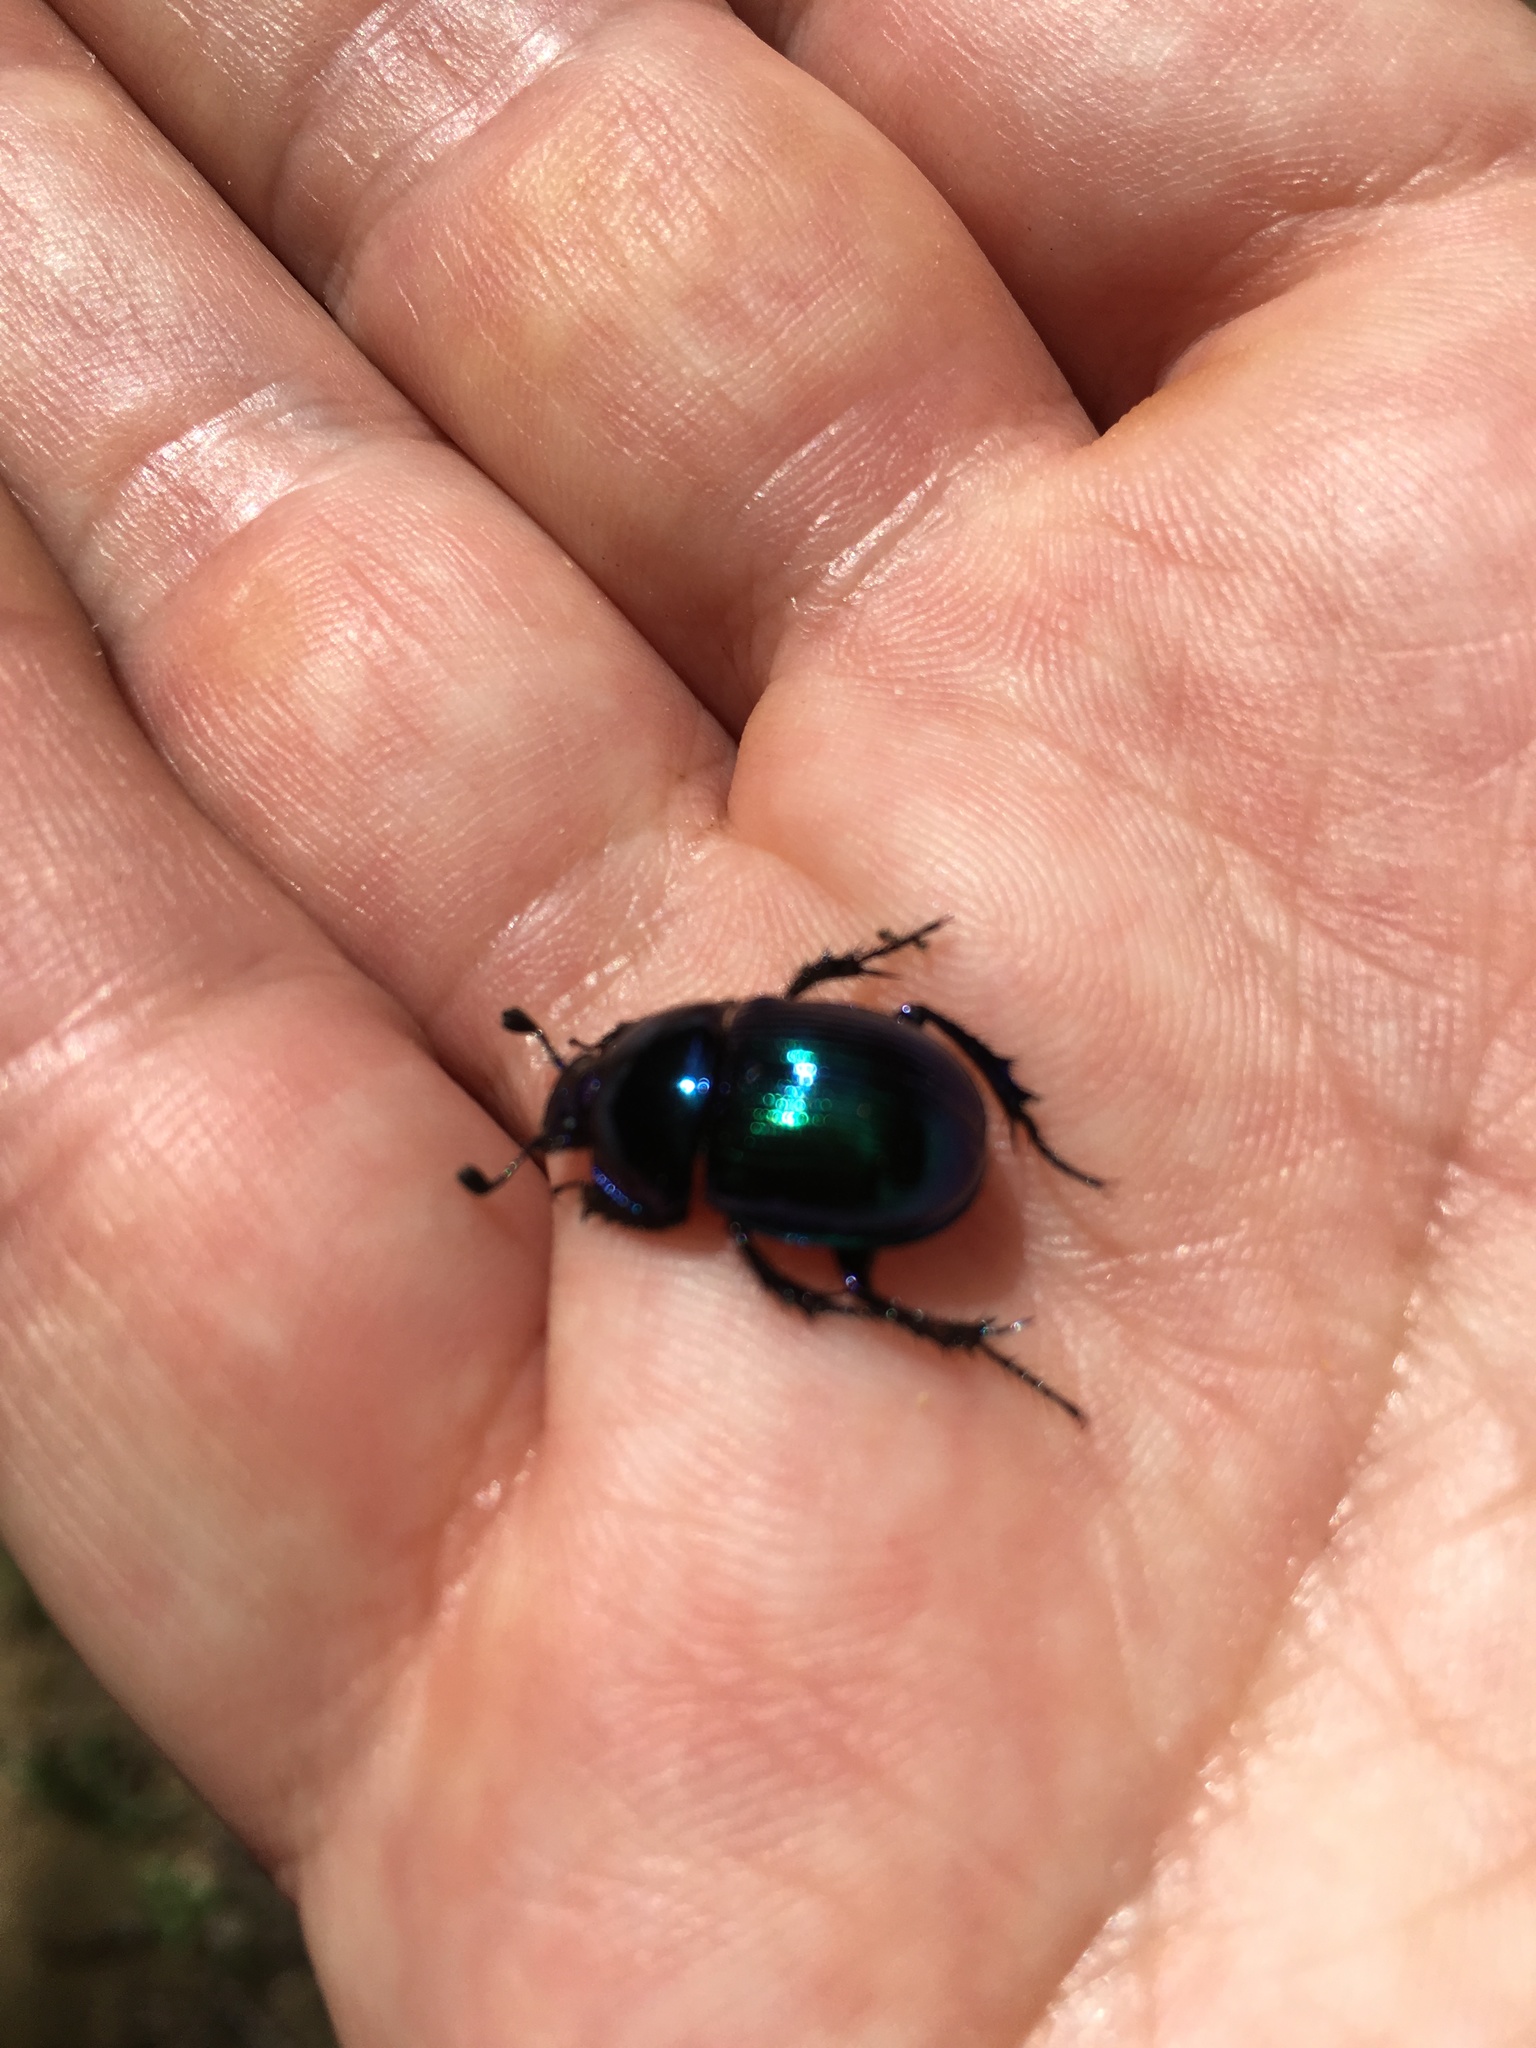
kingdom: Animalia
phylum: Arthropoda
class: Insecta
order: Coleoptera
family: Geotrupidae
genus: Phelotrupes
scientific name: Phelotrupes auratus
